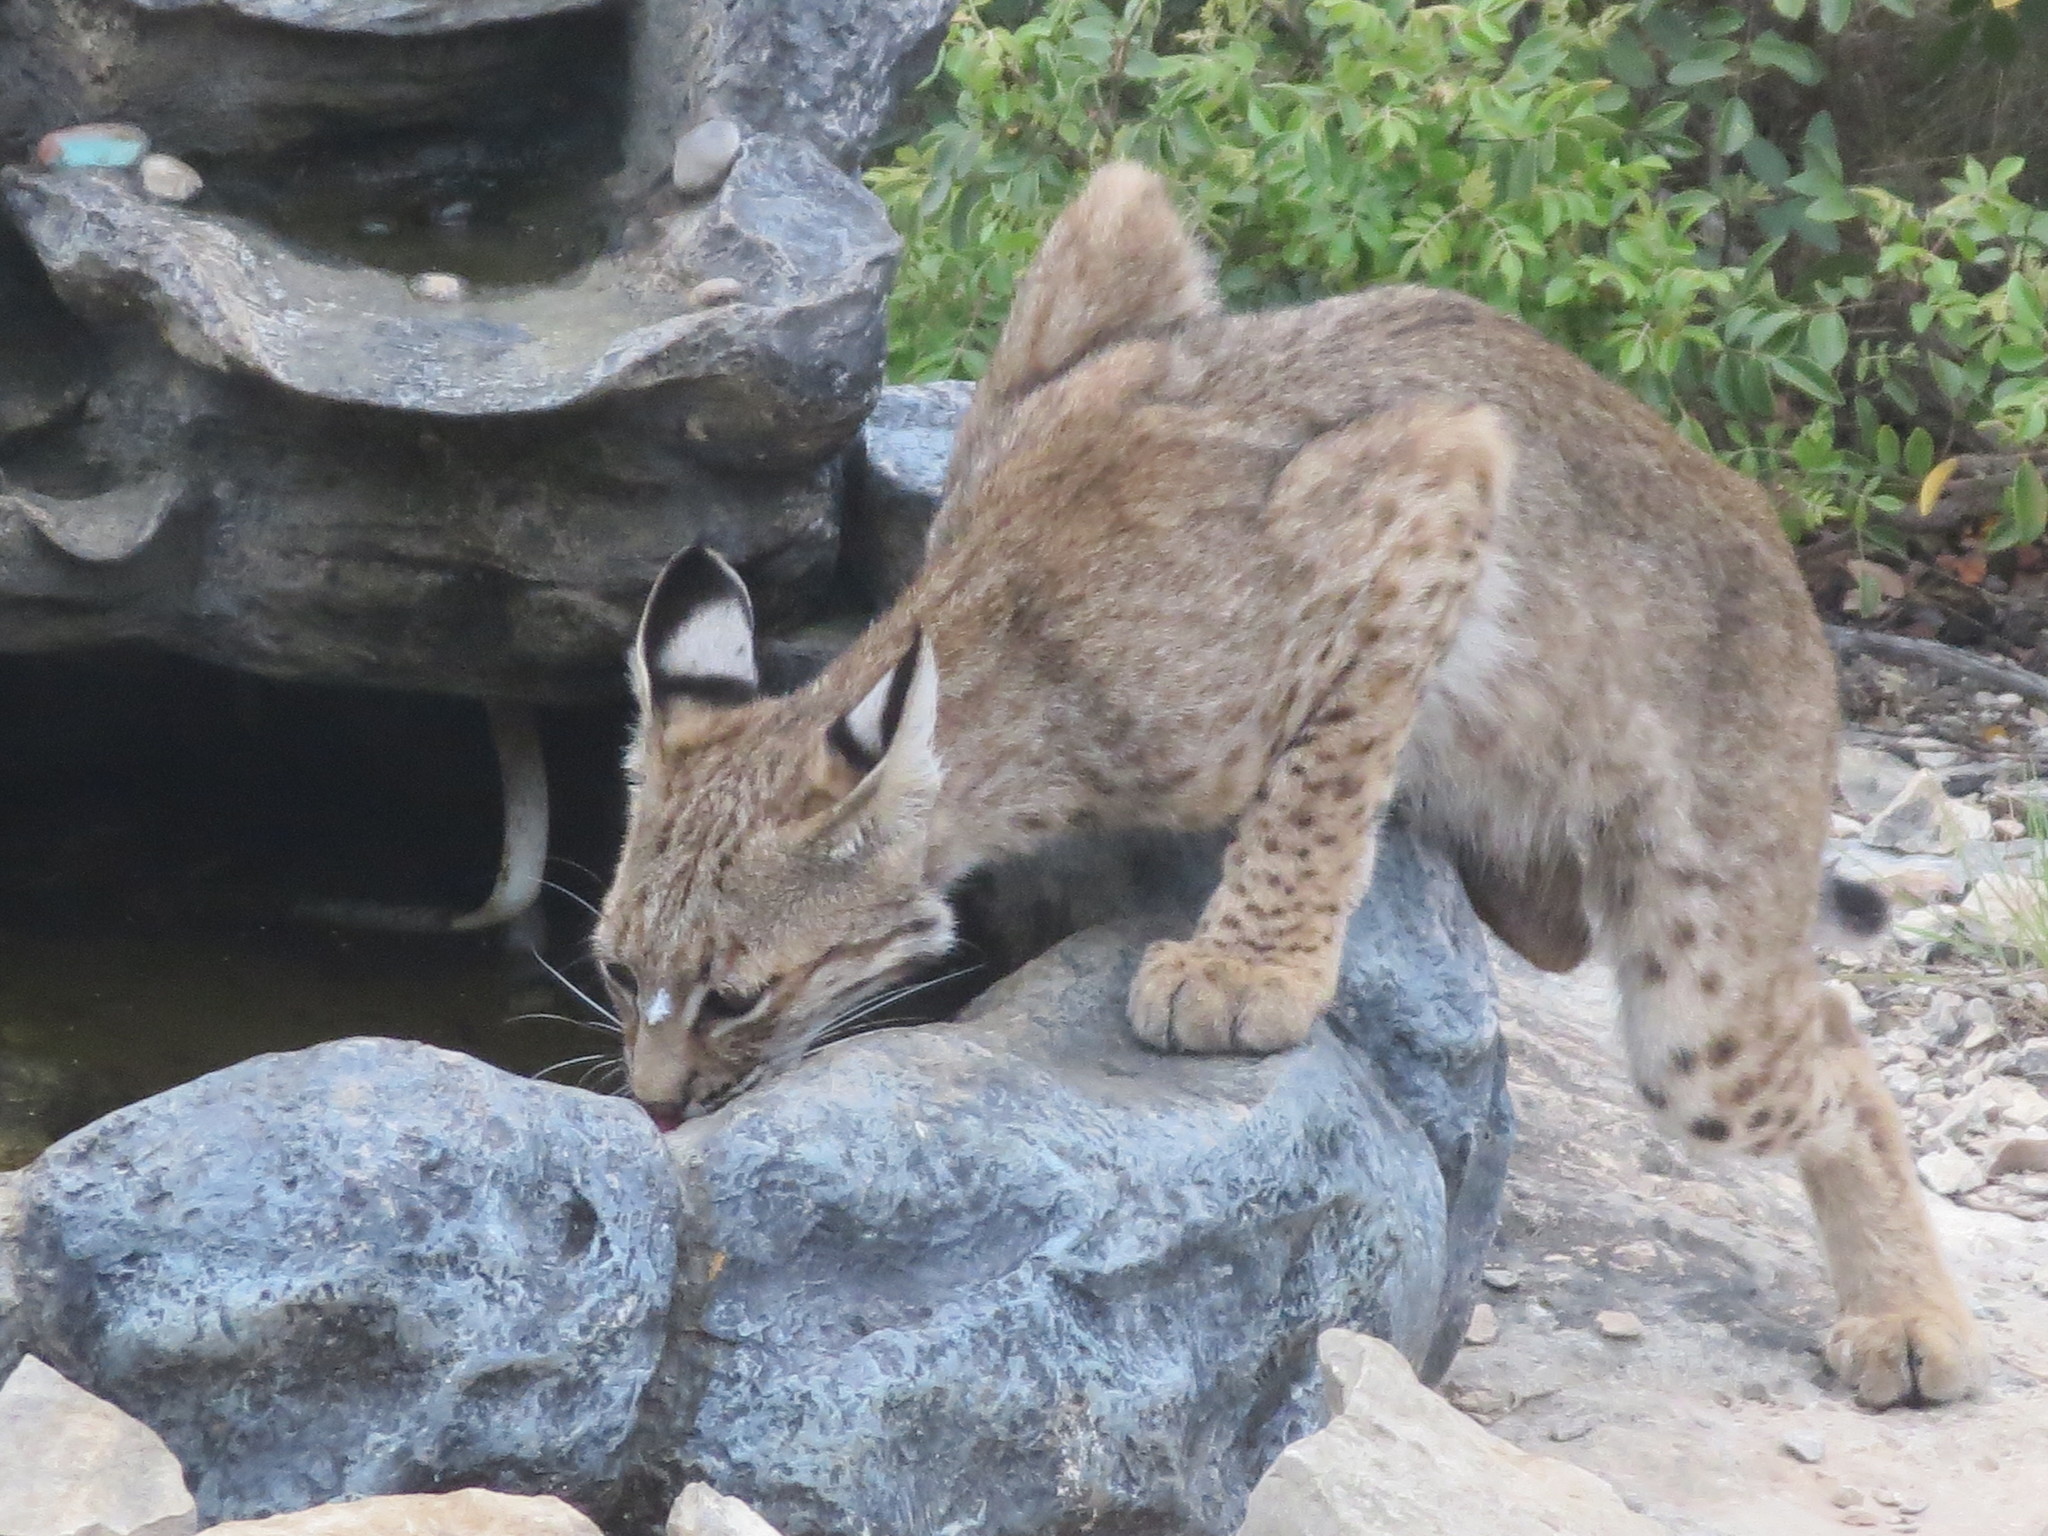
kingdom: Animalia
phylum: Chordata
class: Mammalia
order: Carnivora
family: Felidae
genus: Lynx
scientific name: Lynx rufus
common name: Bobcat
